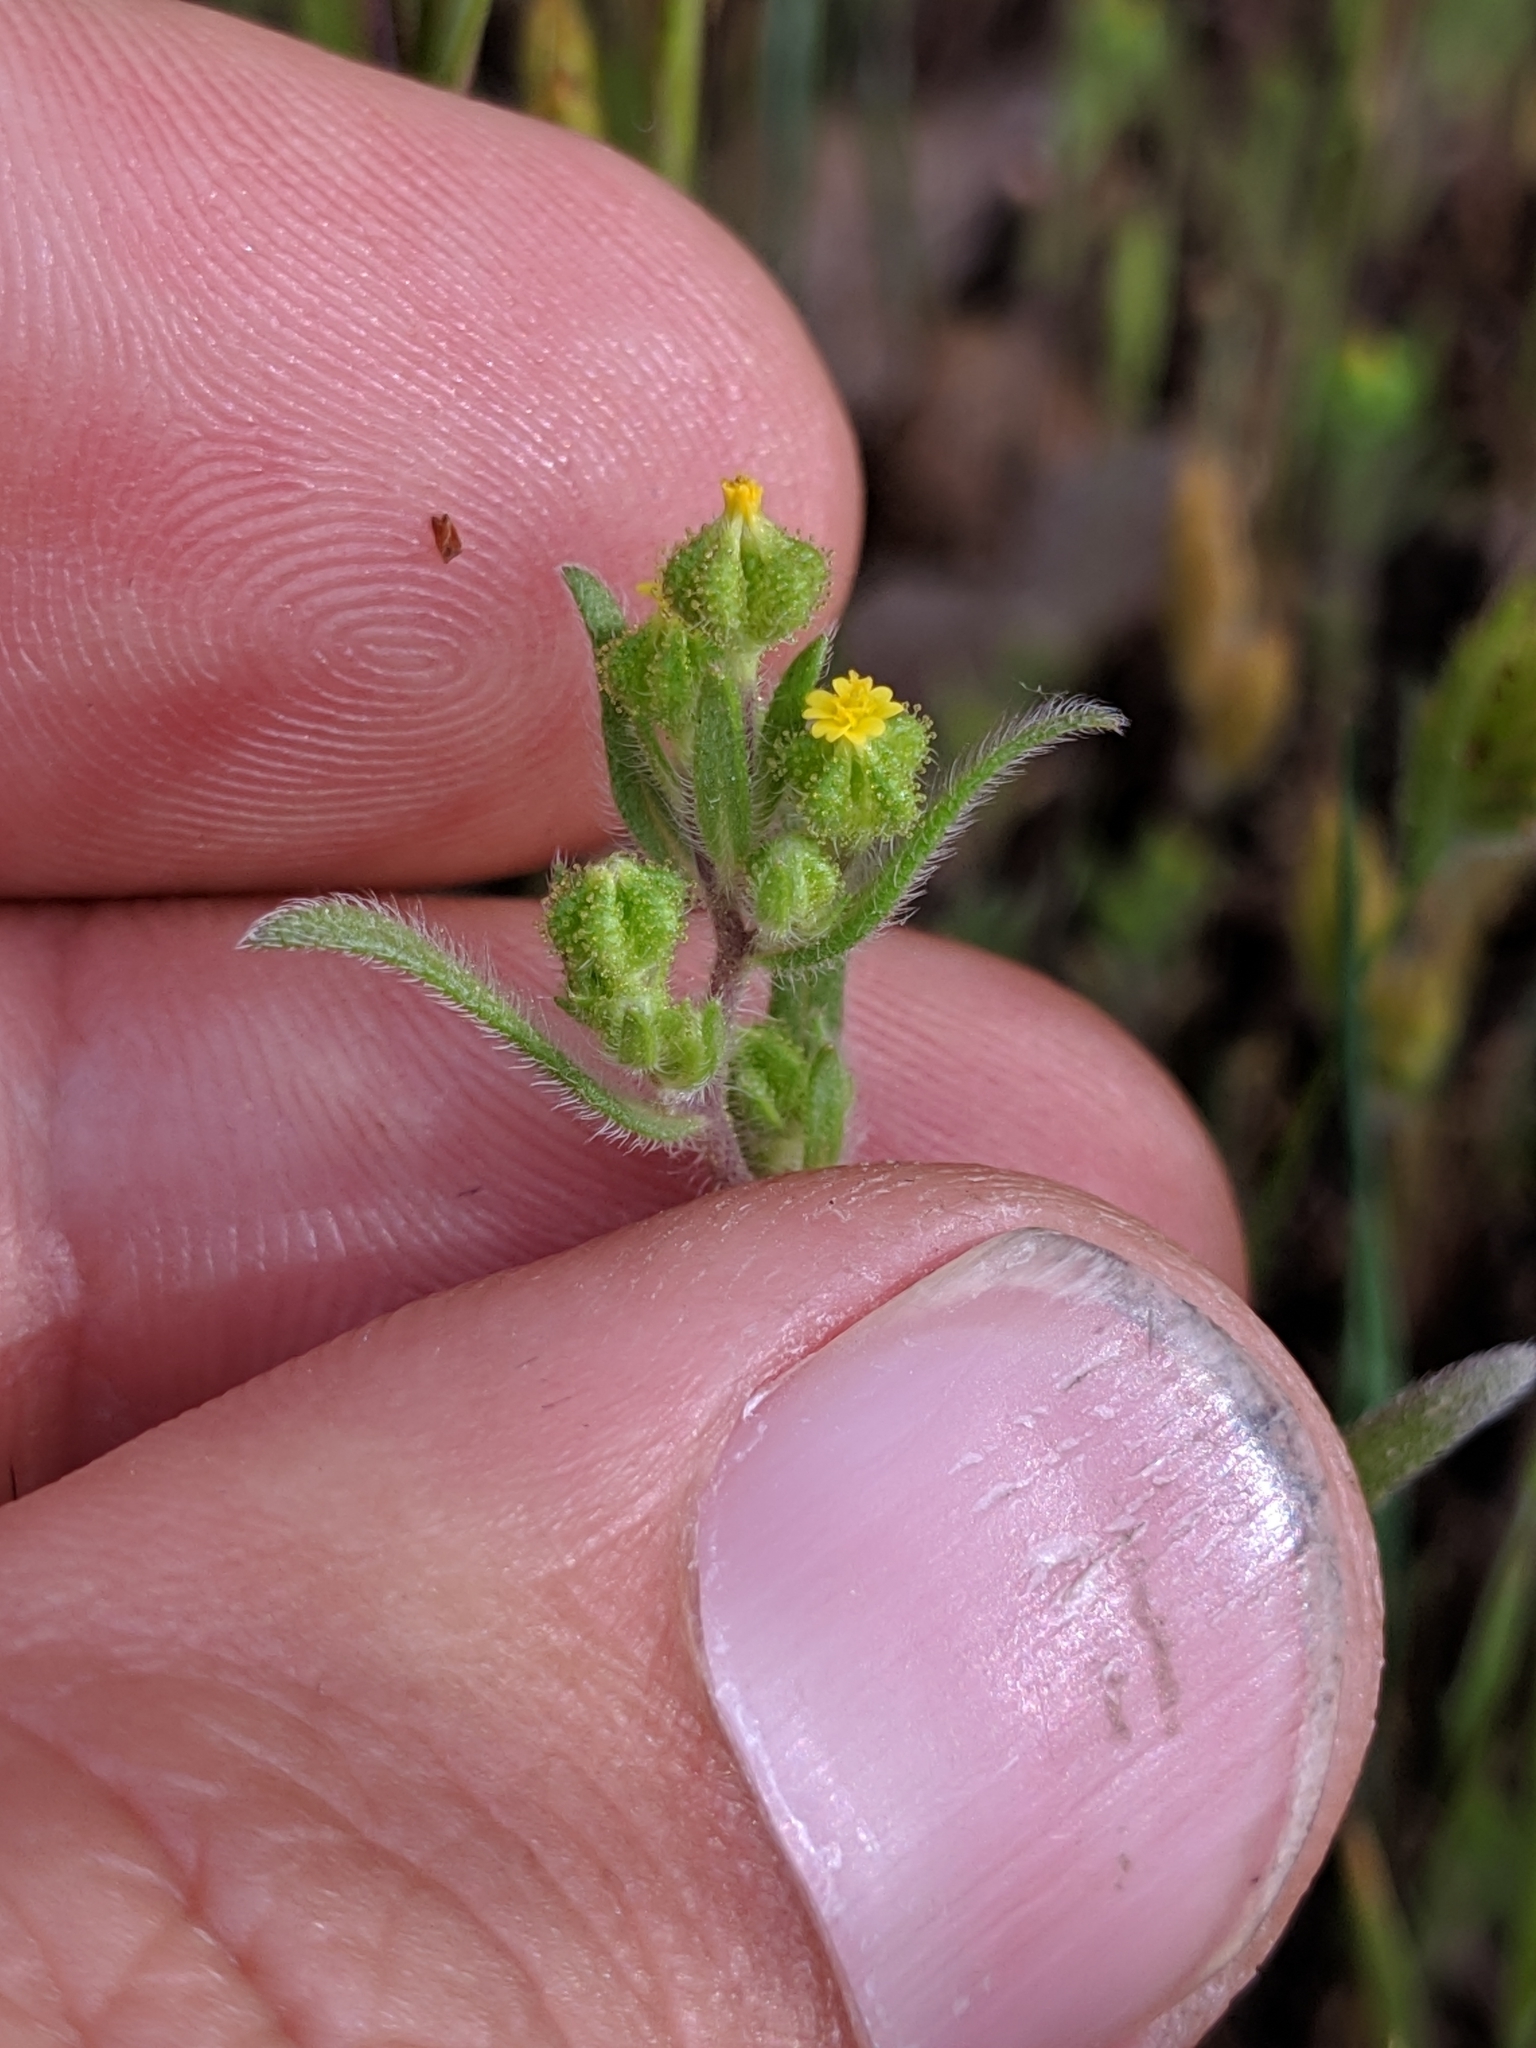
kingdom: Plantae
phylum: Tracheophyta
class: Magnoliopsida
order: Asterales
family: Asteraceae
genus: Madia
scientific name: Madia exigua
